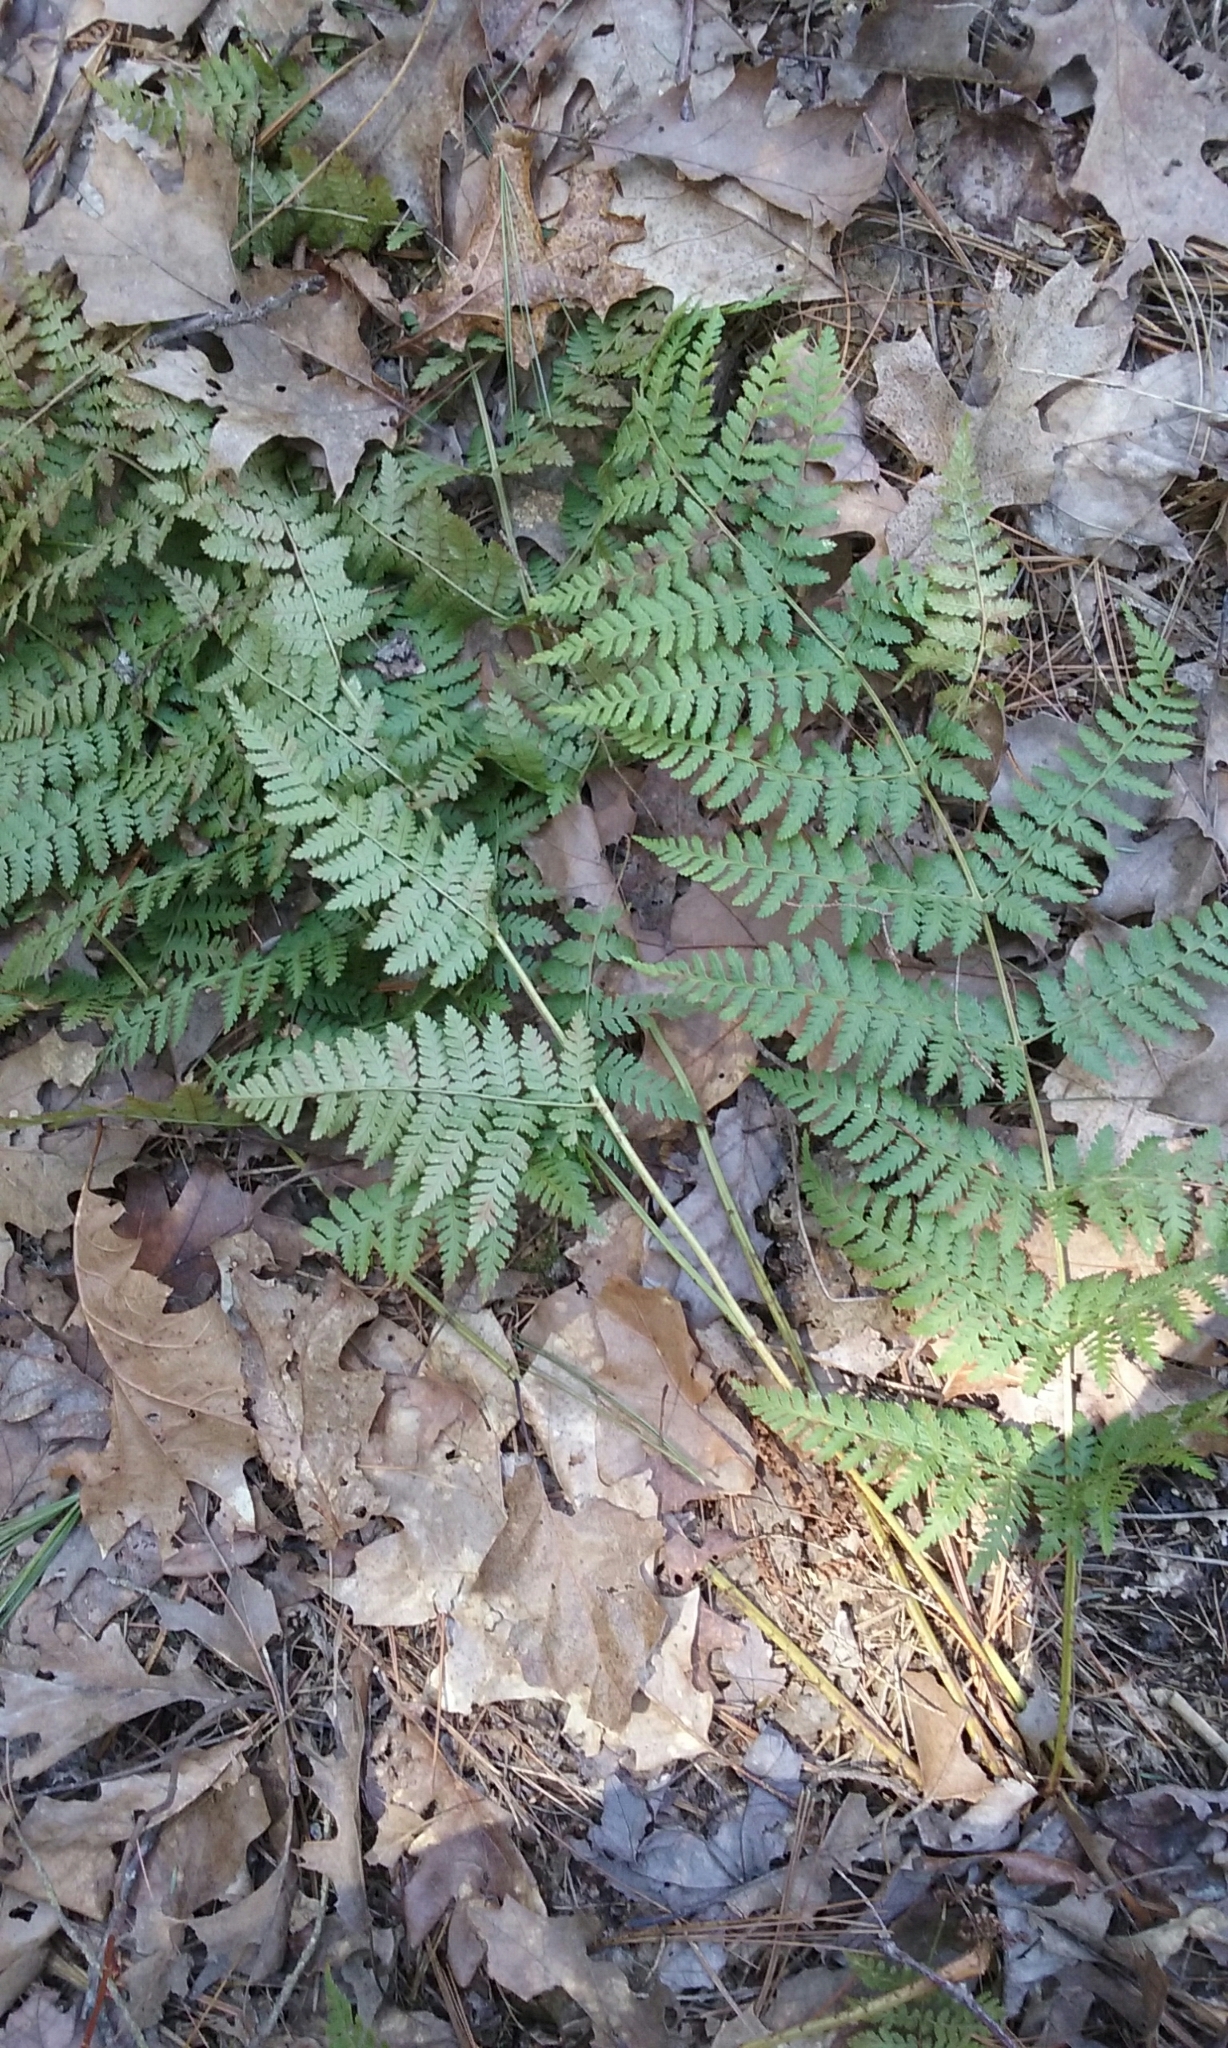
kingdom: Plantae
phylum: Tracheophyta
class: Polypodiopsida
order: Polypodiales
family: Dryopteridaceae
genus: Dryopteris
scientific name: Dryopteris intermedia
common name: Evergreen wood fern
